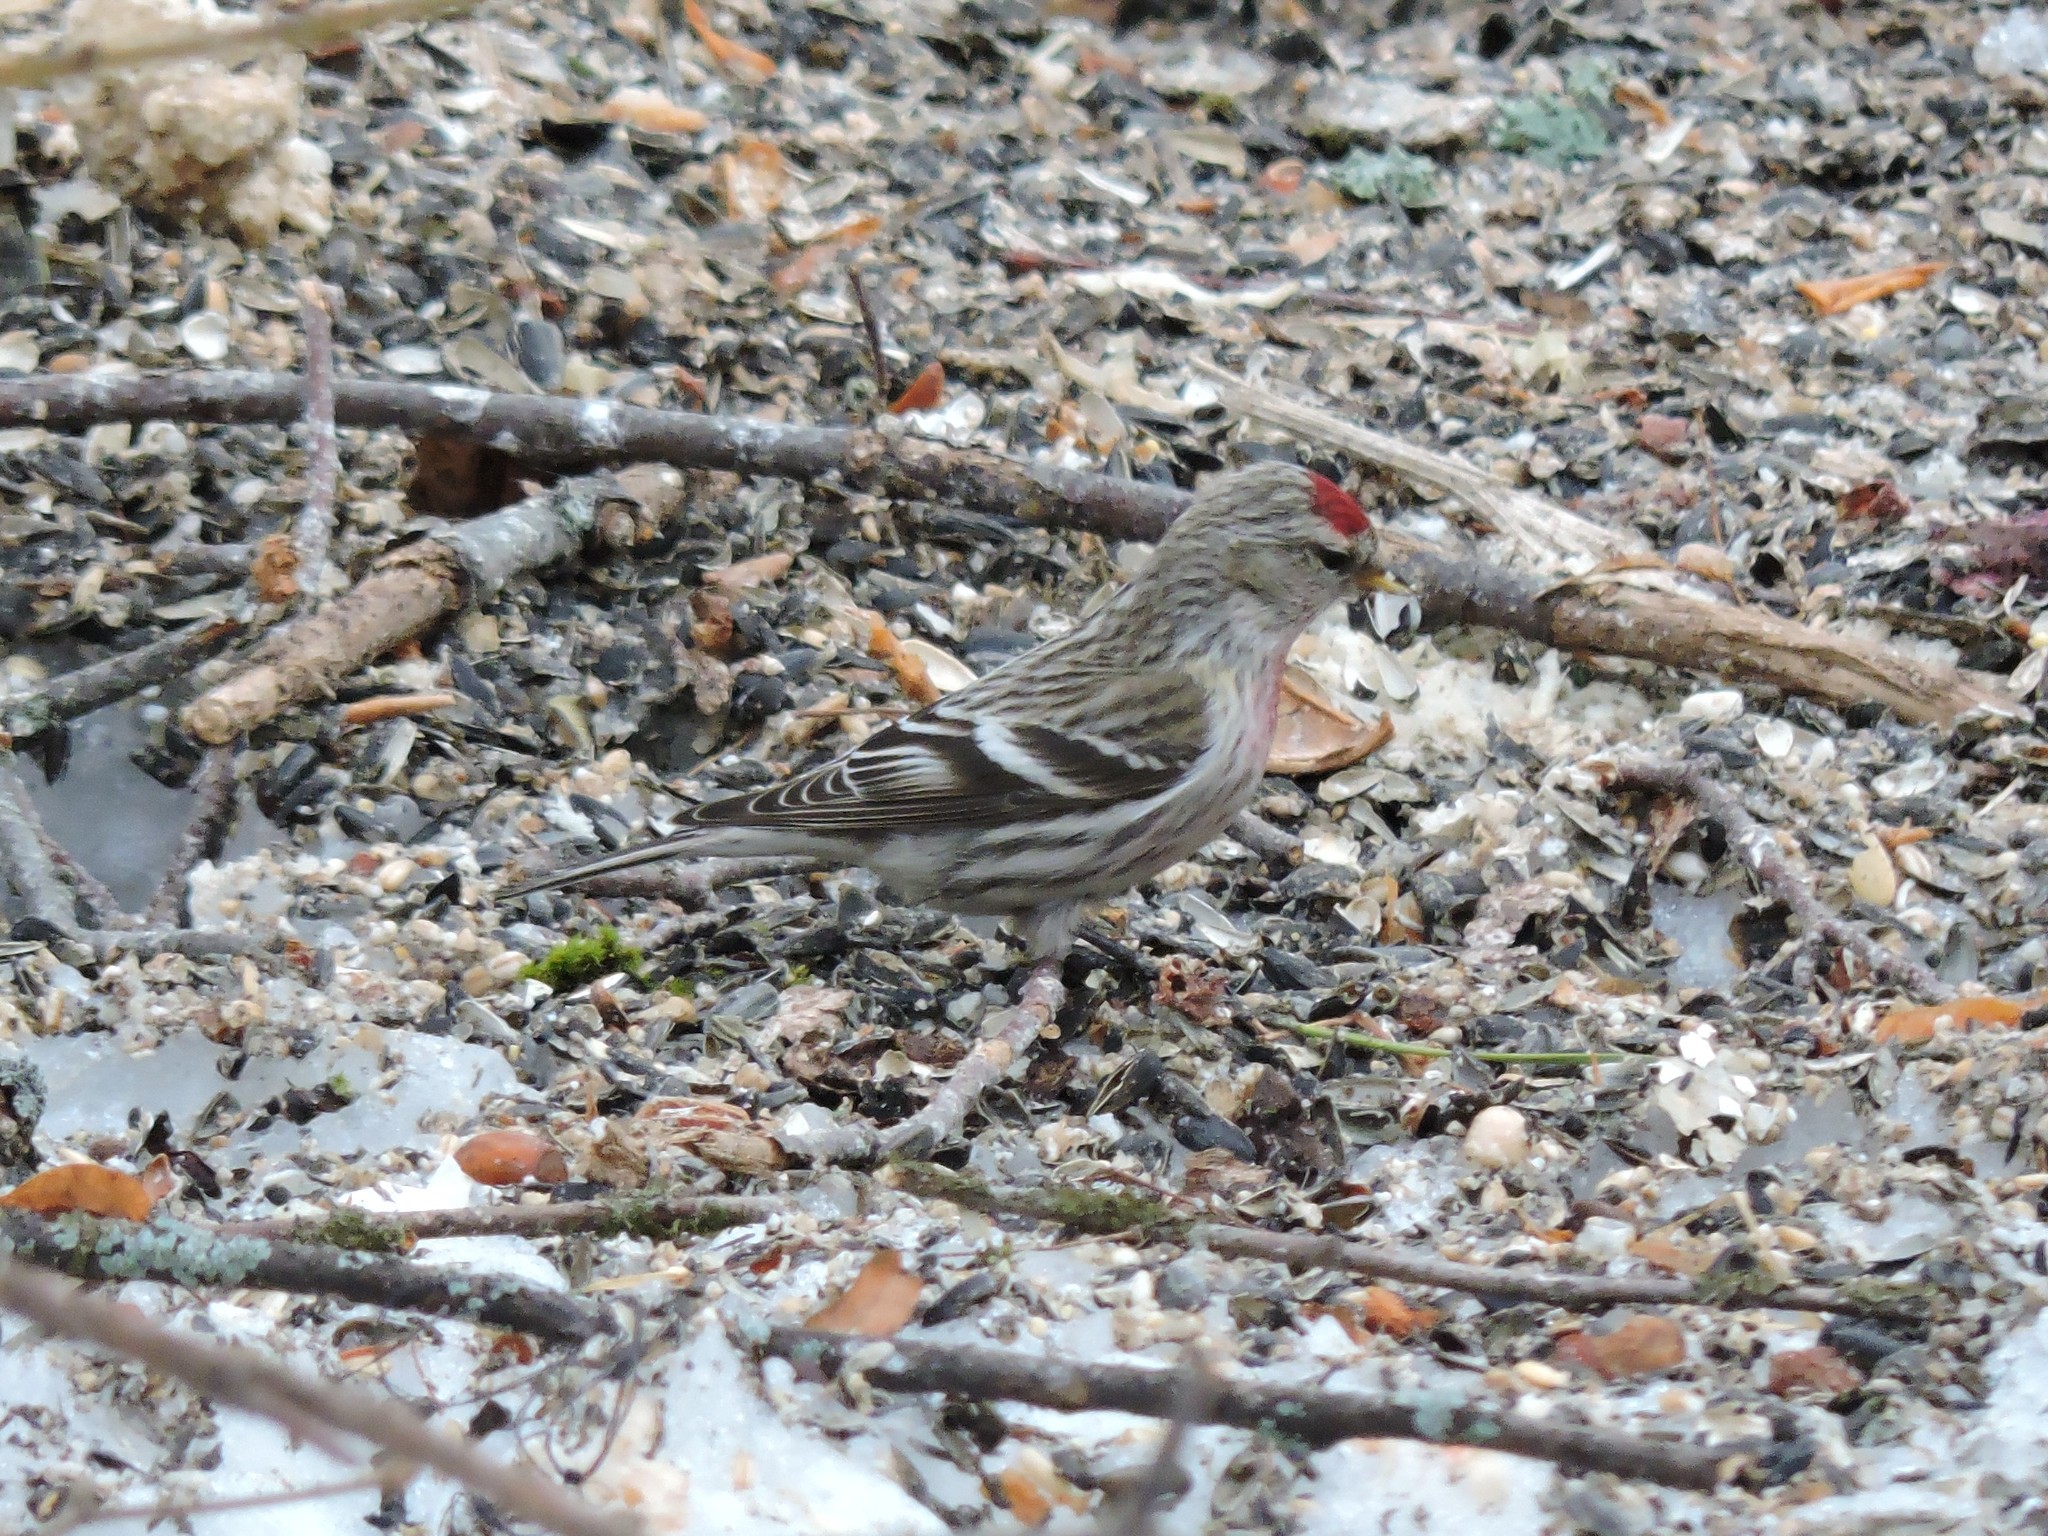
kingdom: Animalia
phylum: Chordata
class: Aves
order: Passeriformes
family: Fringillidae
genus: Acanthis
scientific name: Acanthis flammea
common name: Common redpoll
